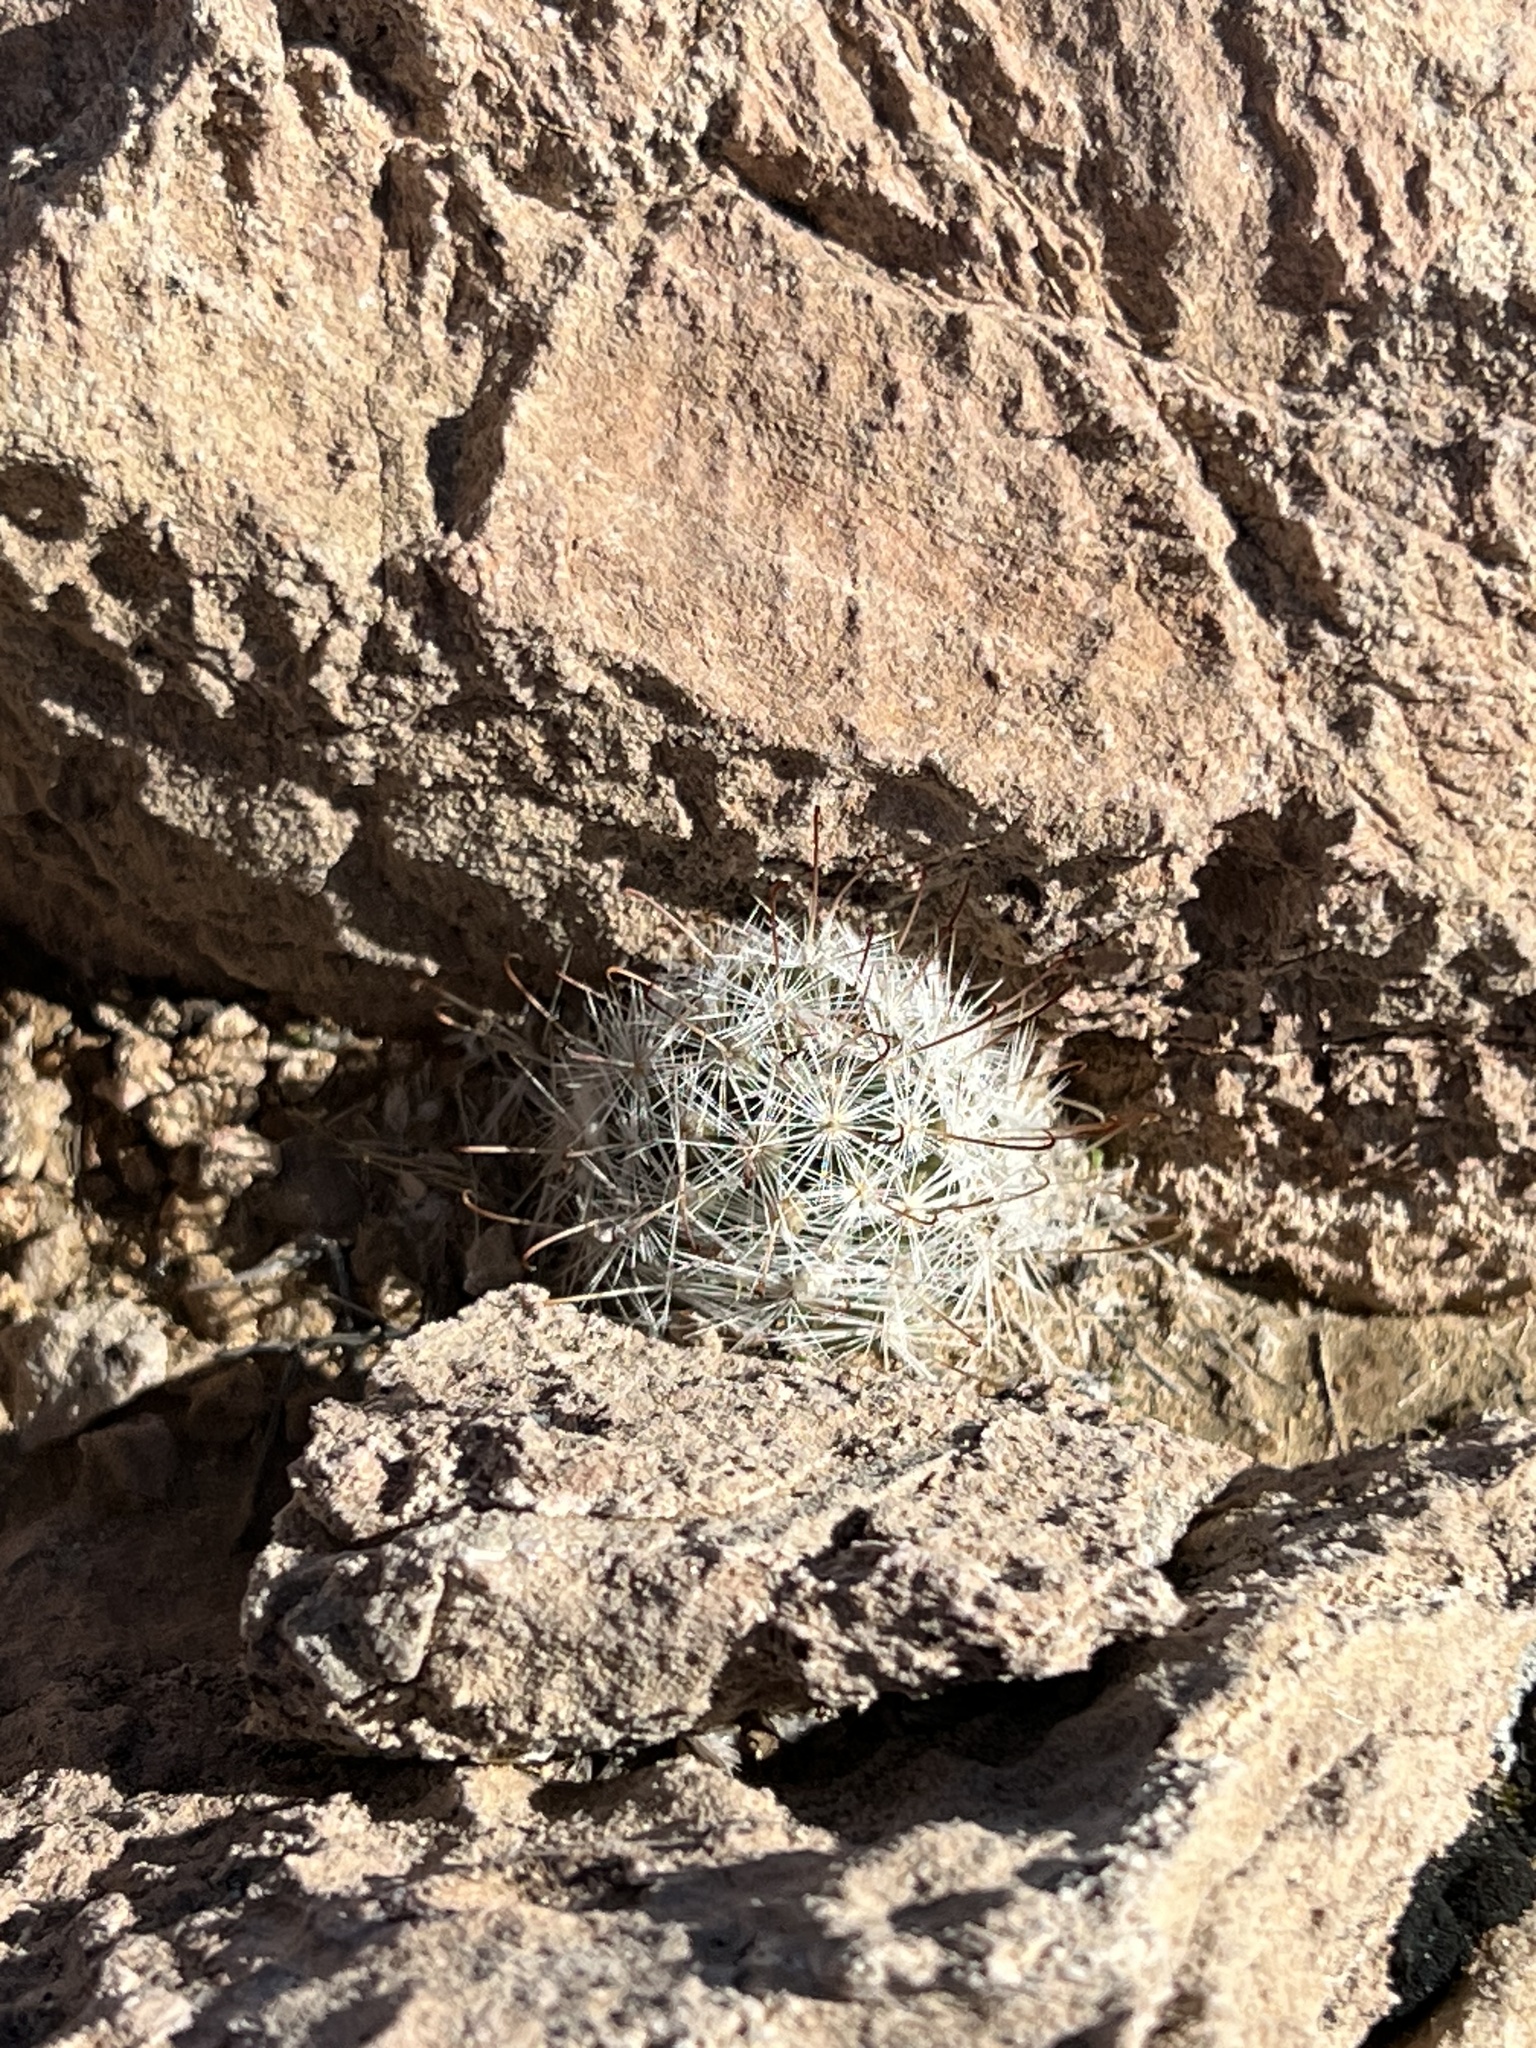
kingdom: Plantae
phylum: Tracheophyta
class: Magnoliopsida
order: Caryophyllales
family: Cactaceae
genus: Cochemiea
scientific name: Cochemiea tetrancistra
